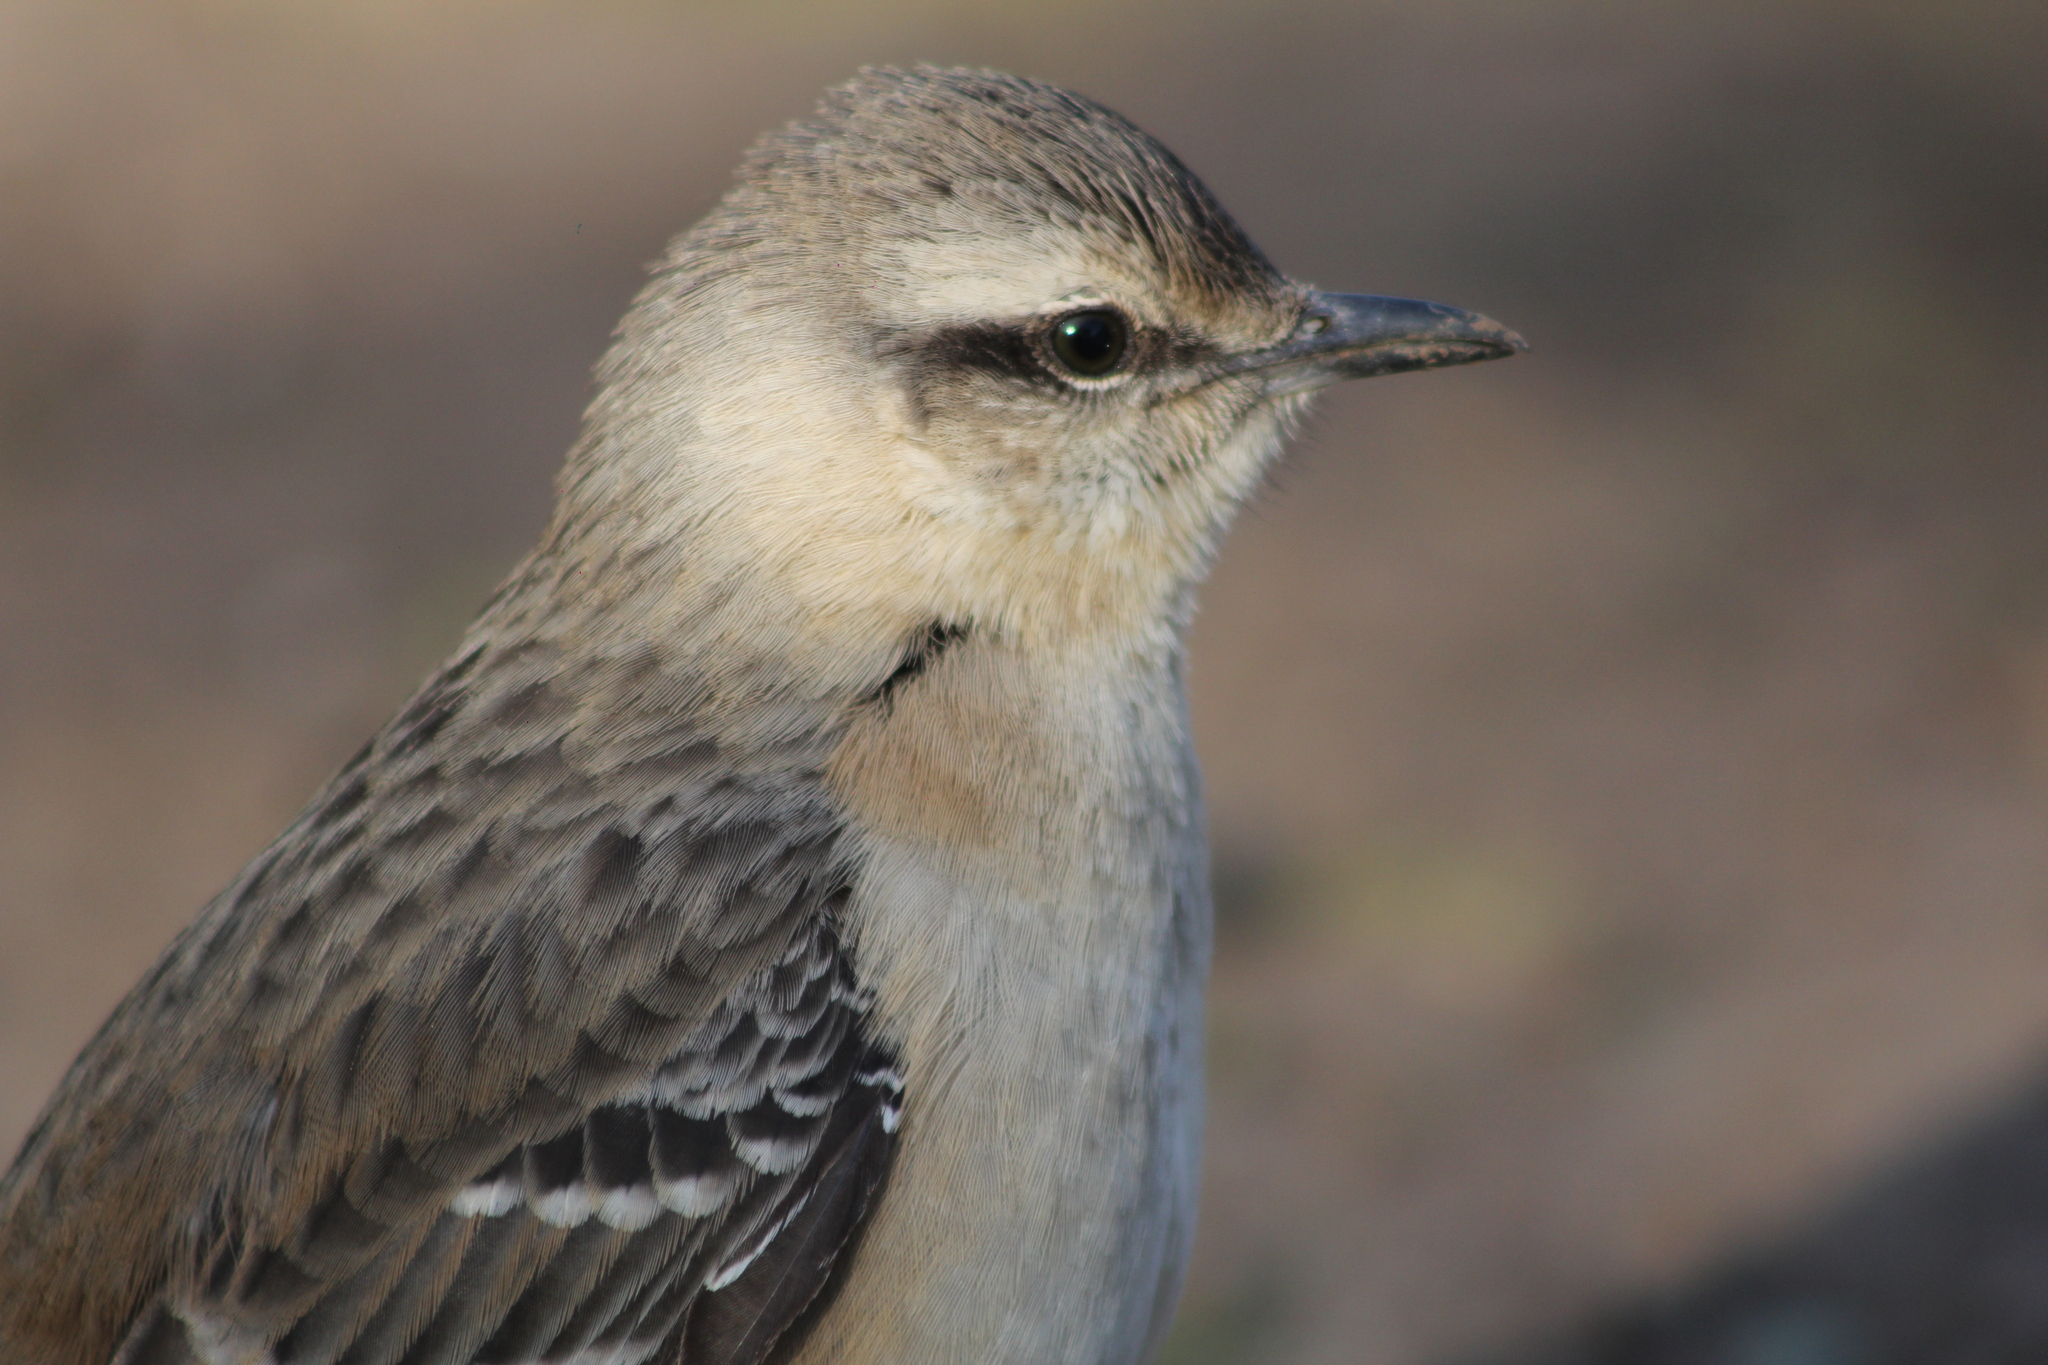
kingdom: Animalia
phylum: Chordata
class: Aves
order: Passeriformes
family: Mimidae
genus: Mimus
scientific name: Mimus saturninus
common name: Chalk-browed mockingbird
